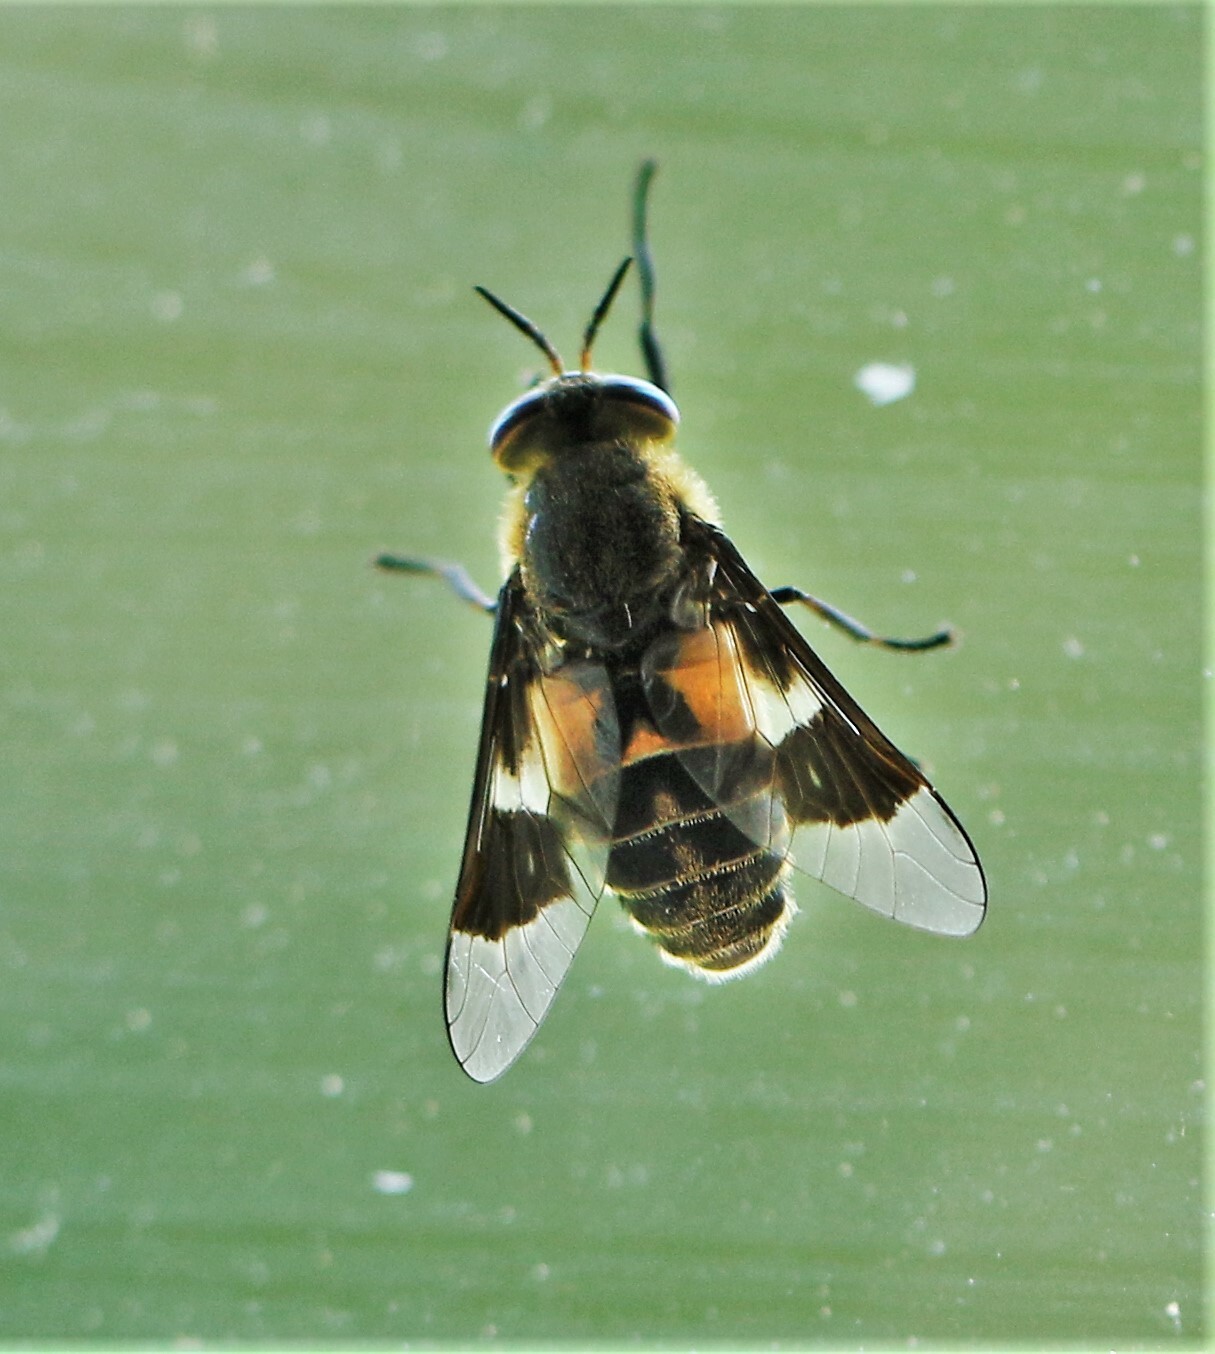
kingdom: Animalia
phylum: Arthropoda
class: Insecta
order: Diptera
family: Tabanidae
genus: Chrysops
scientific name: Chrysops excitans
